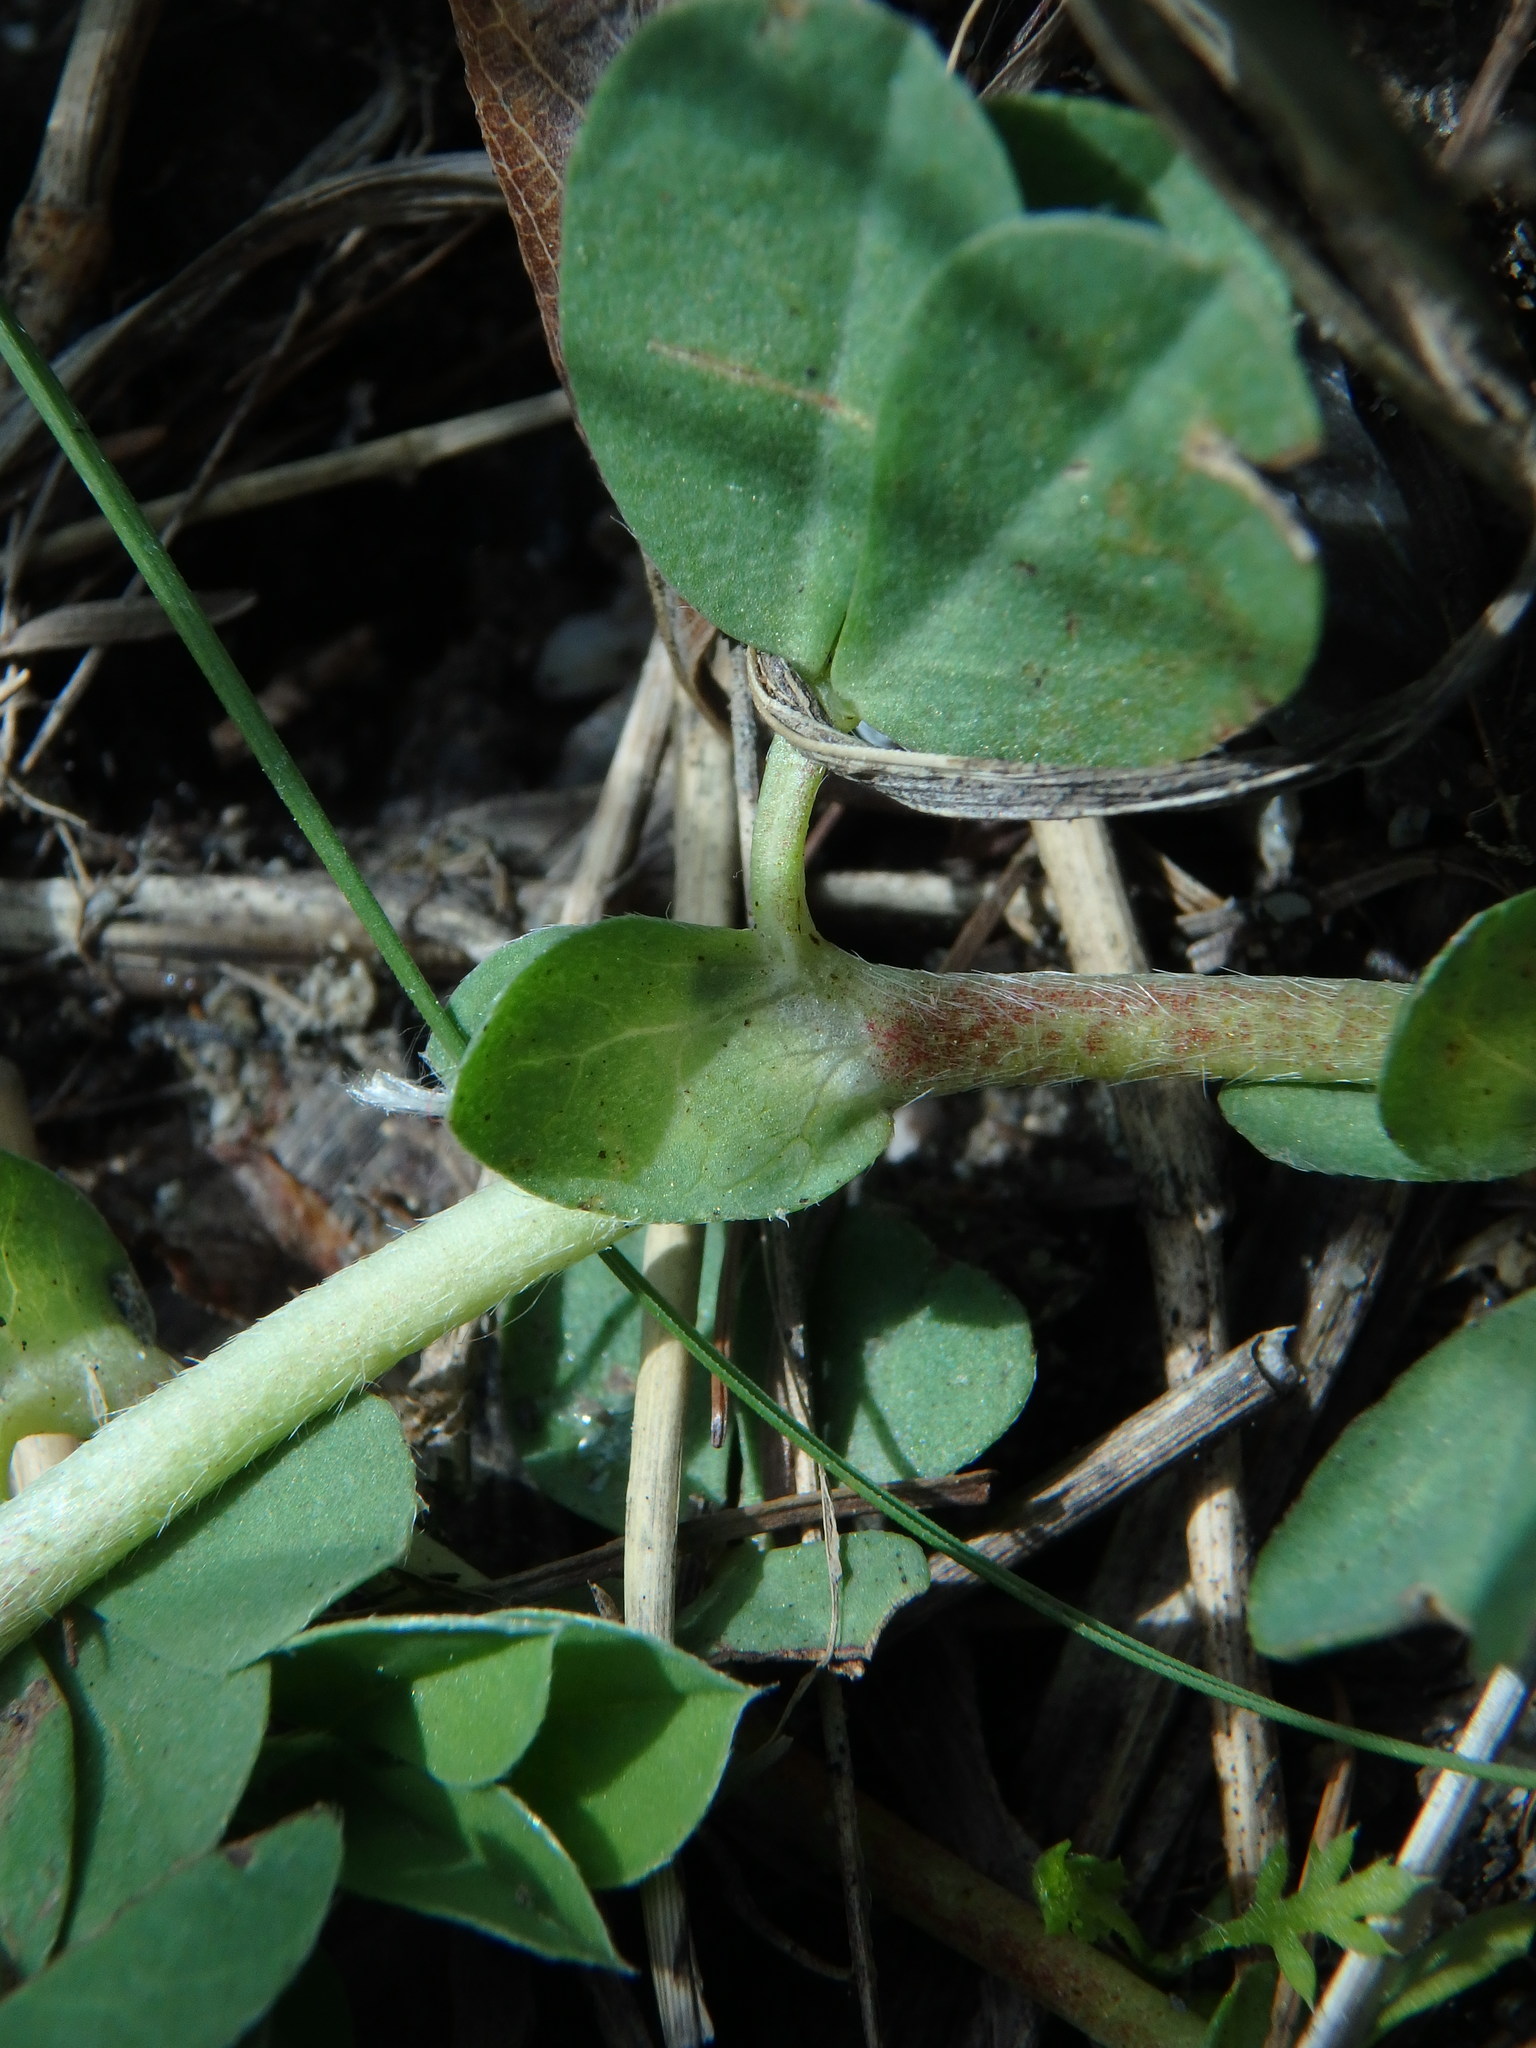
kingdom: Plantae
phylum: Tracheophyta
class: Magnoliopsida
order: Fabales
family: Fabaceae
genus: Lotus
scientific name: Lotus maritimus
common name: Dragon's-teeth
